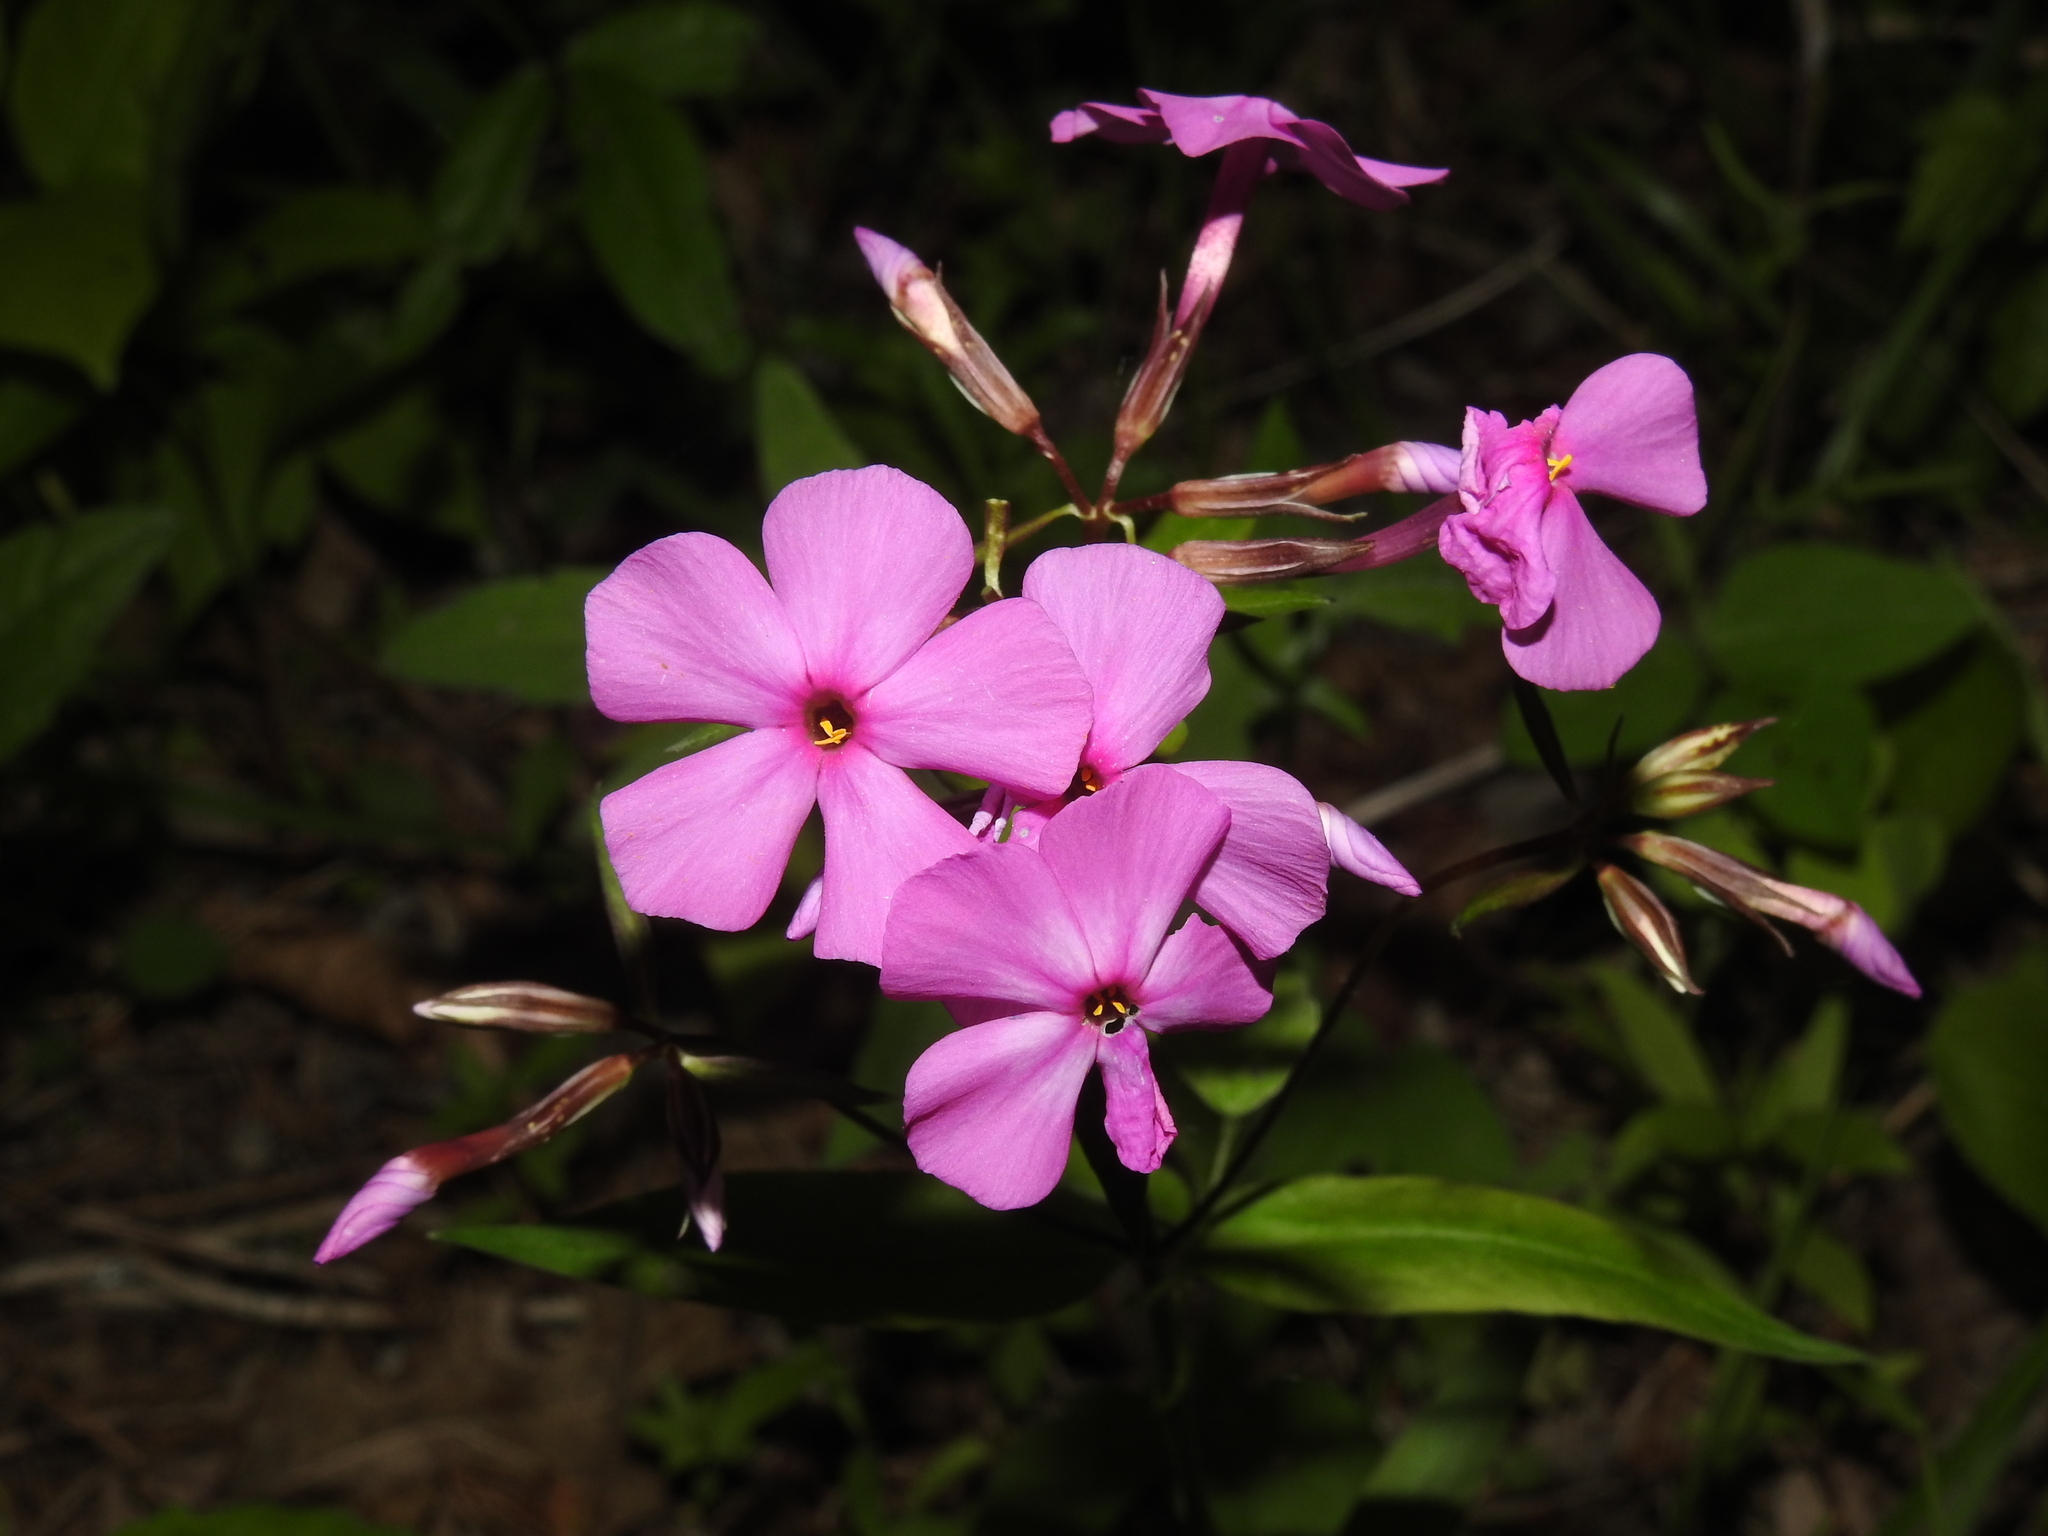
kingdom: Plantae
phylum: Tracheophyta
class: Magnoliopsida
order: Ericales
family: Polemoniaceae
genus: Phlox
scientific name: Phlox glaberrima
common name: Smooth phlox
